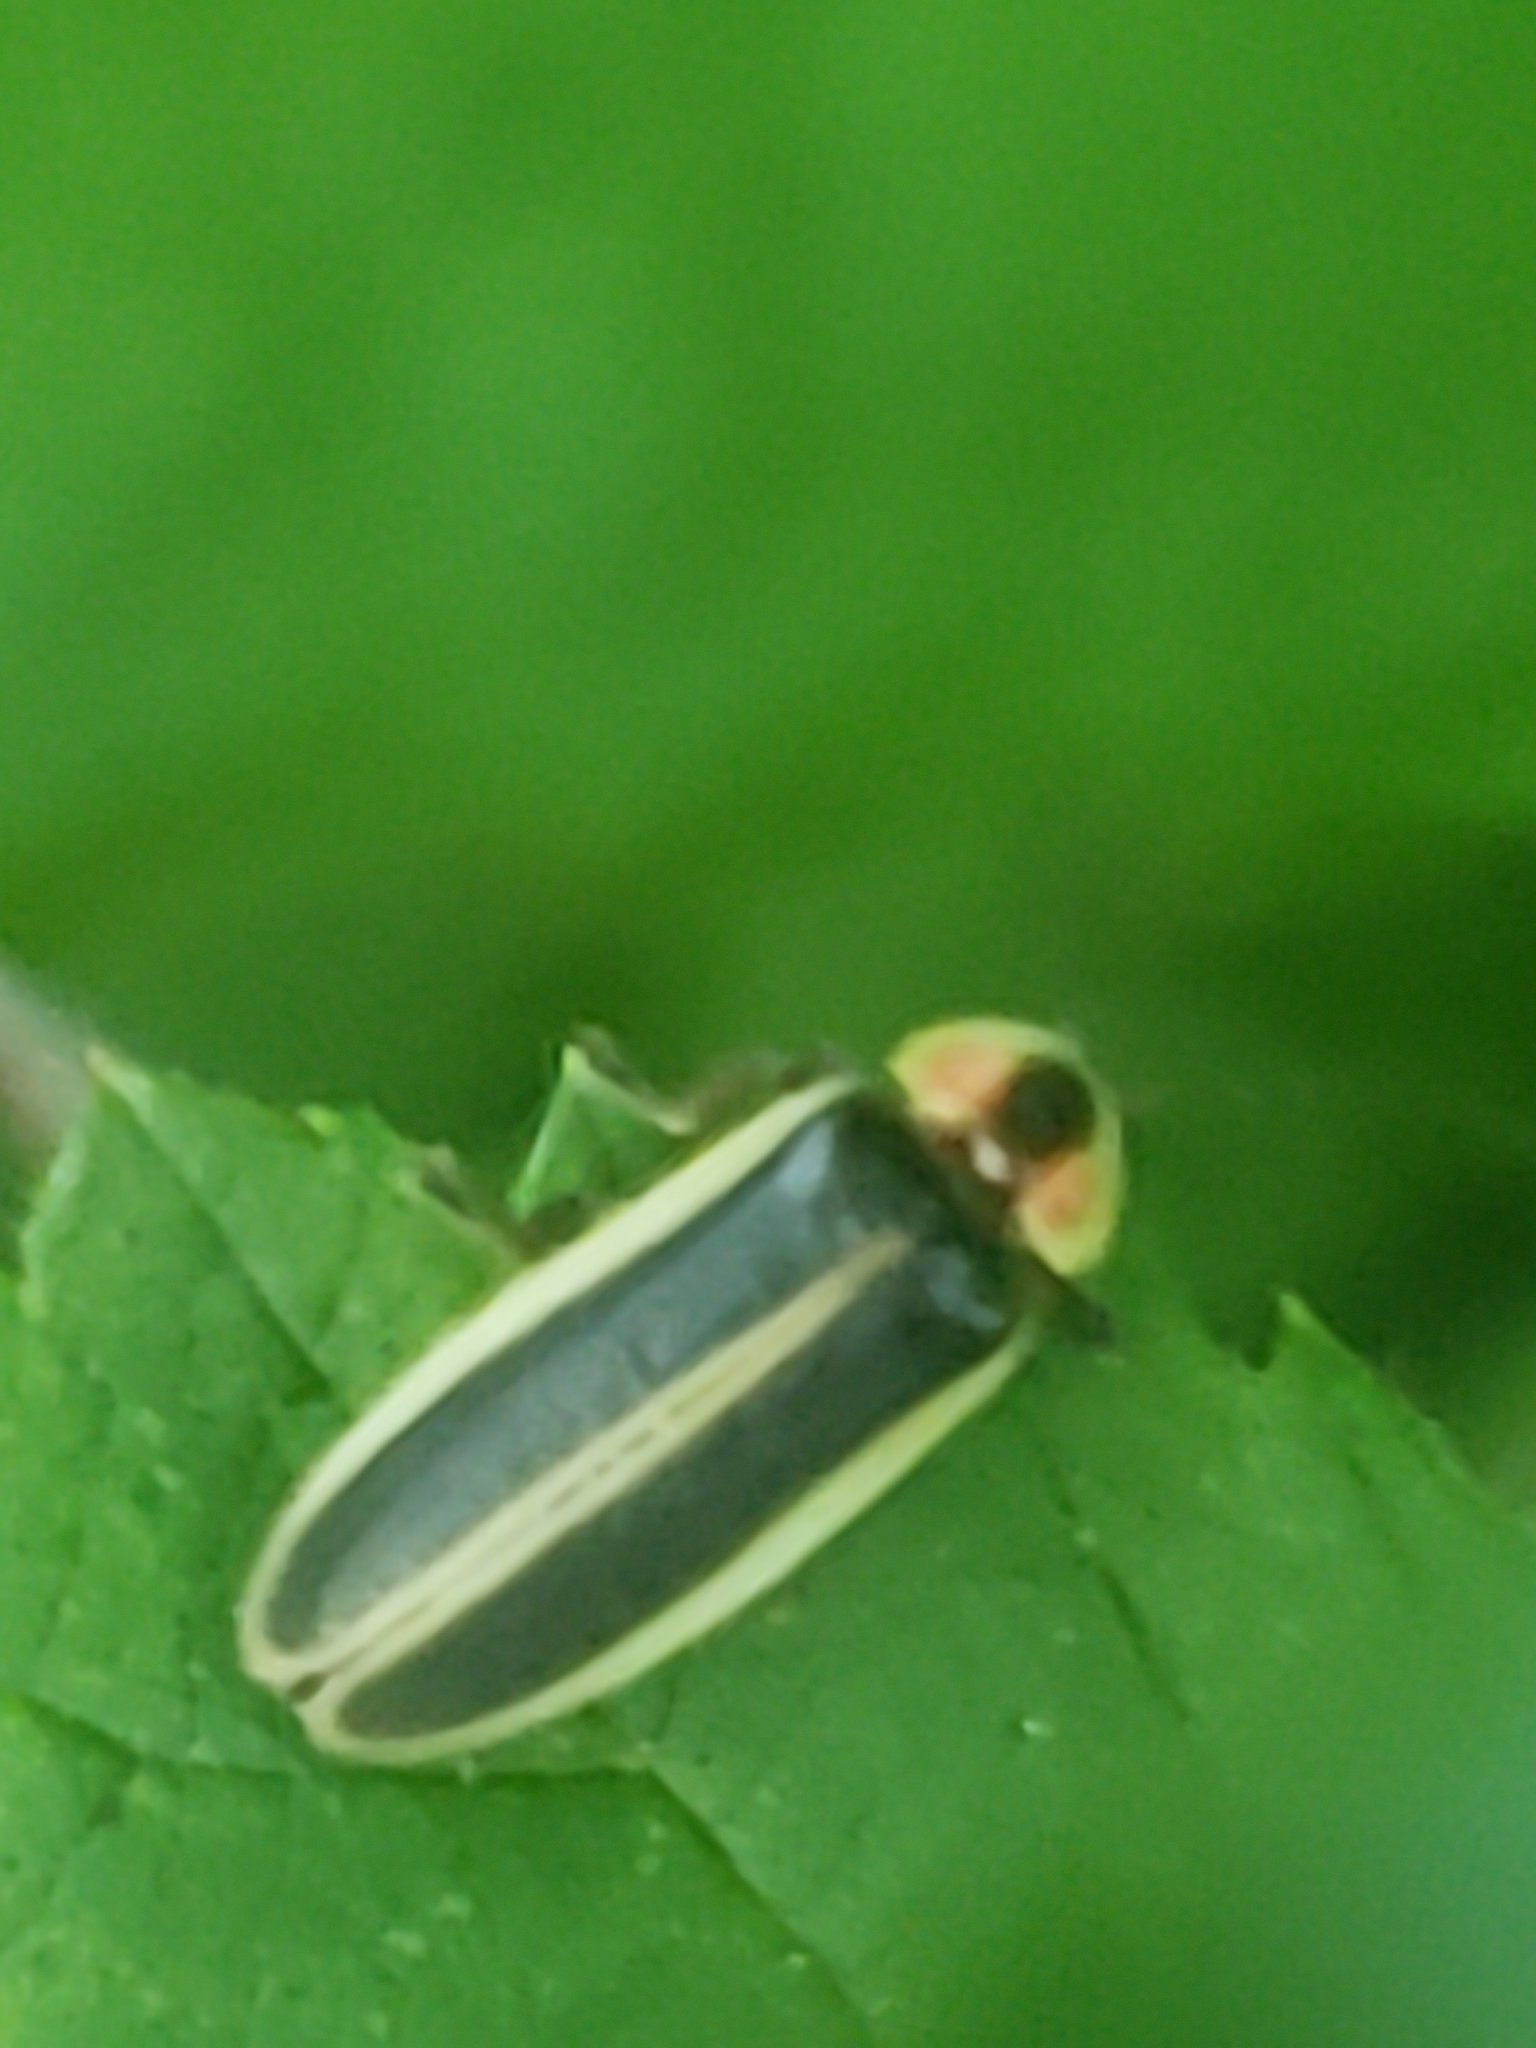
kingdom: Animalia
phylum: Arthropoda
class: Insecta
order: Coleoptera
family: Lampyridae
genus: Photinus
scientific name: Photinus pyralis
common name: Big dipper firefly
